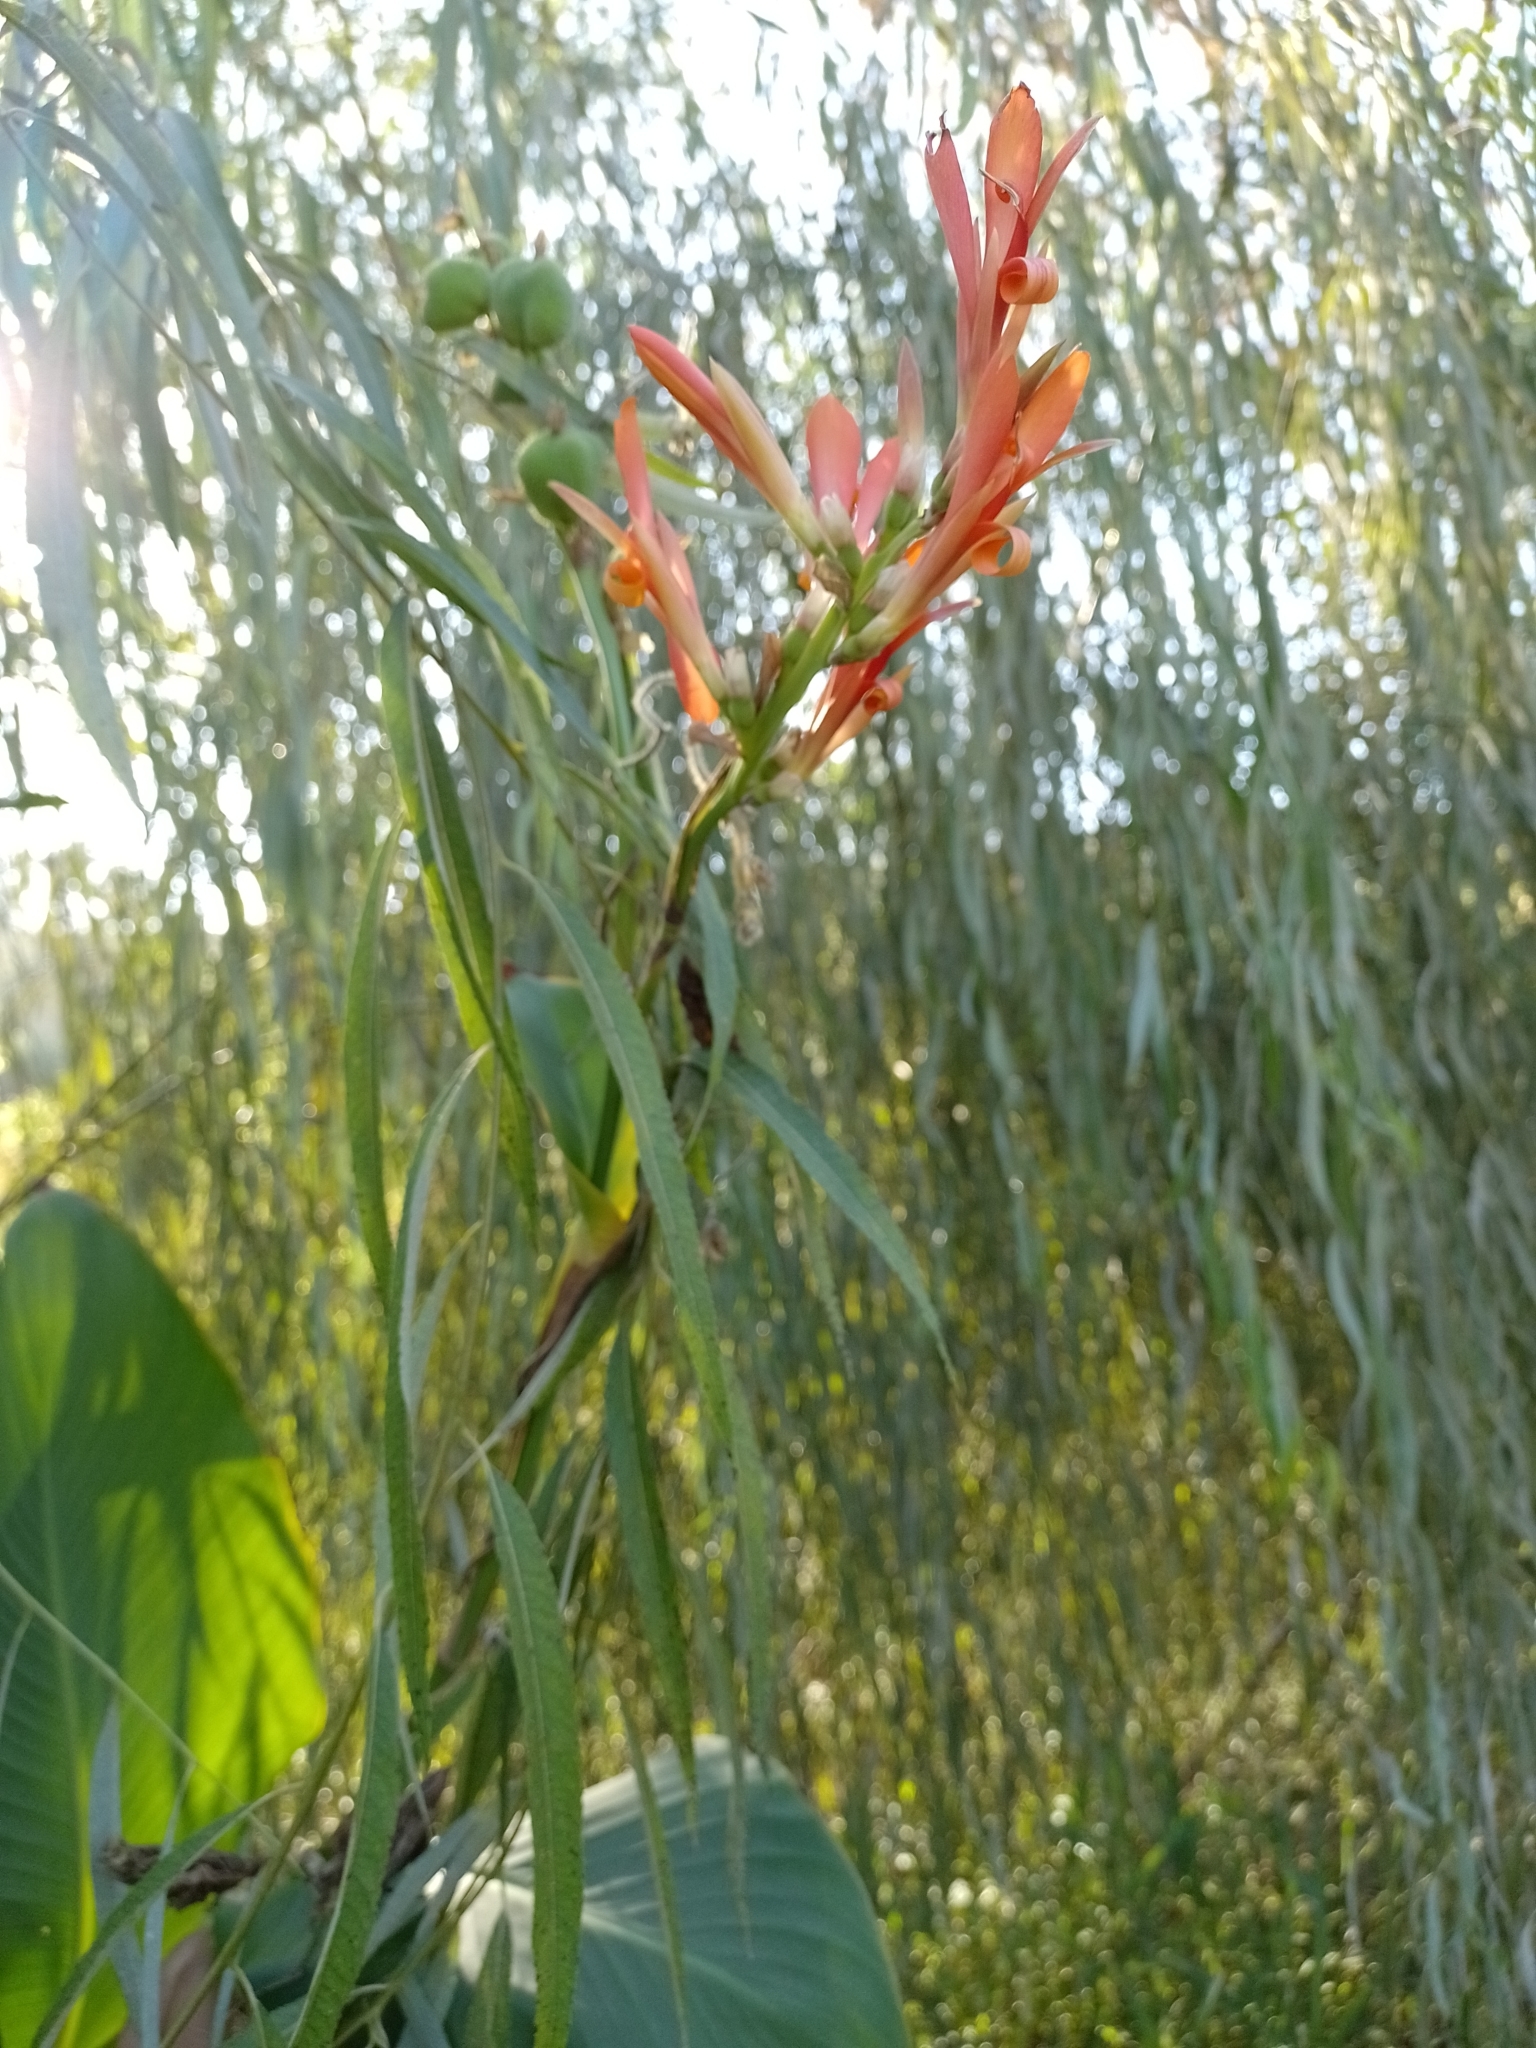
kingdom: Plantae
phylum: Tracheophyta
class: Liliopsida
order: Zingiberales
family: Cannaceae
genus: Canna
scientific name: Canna indica
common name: Indian shot
